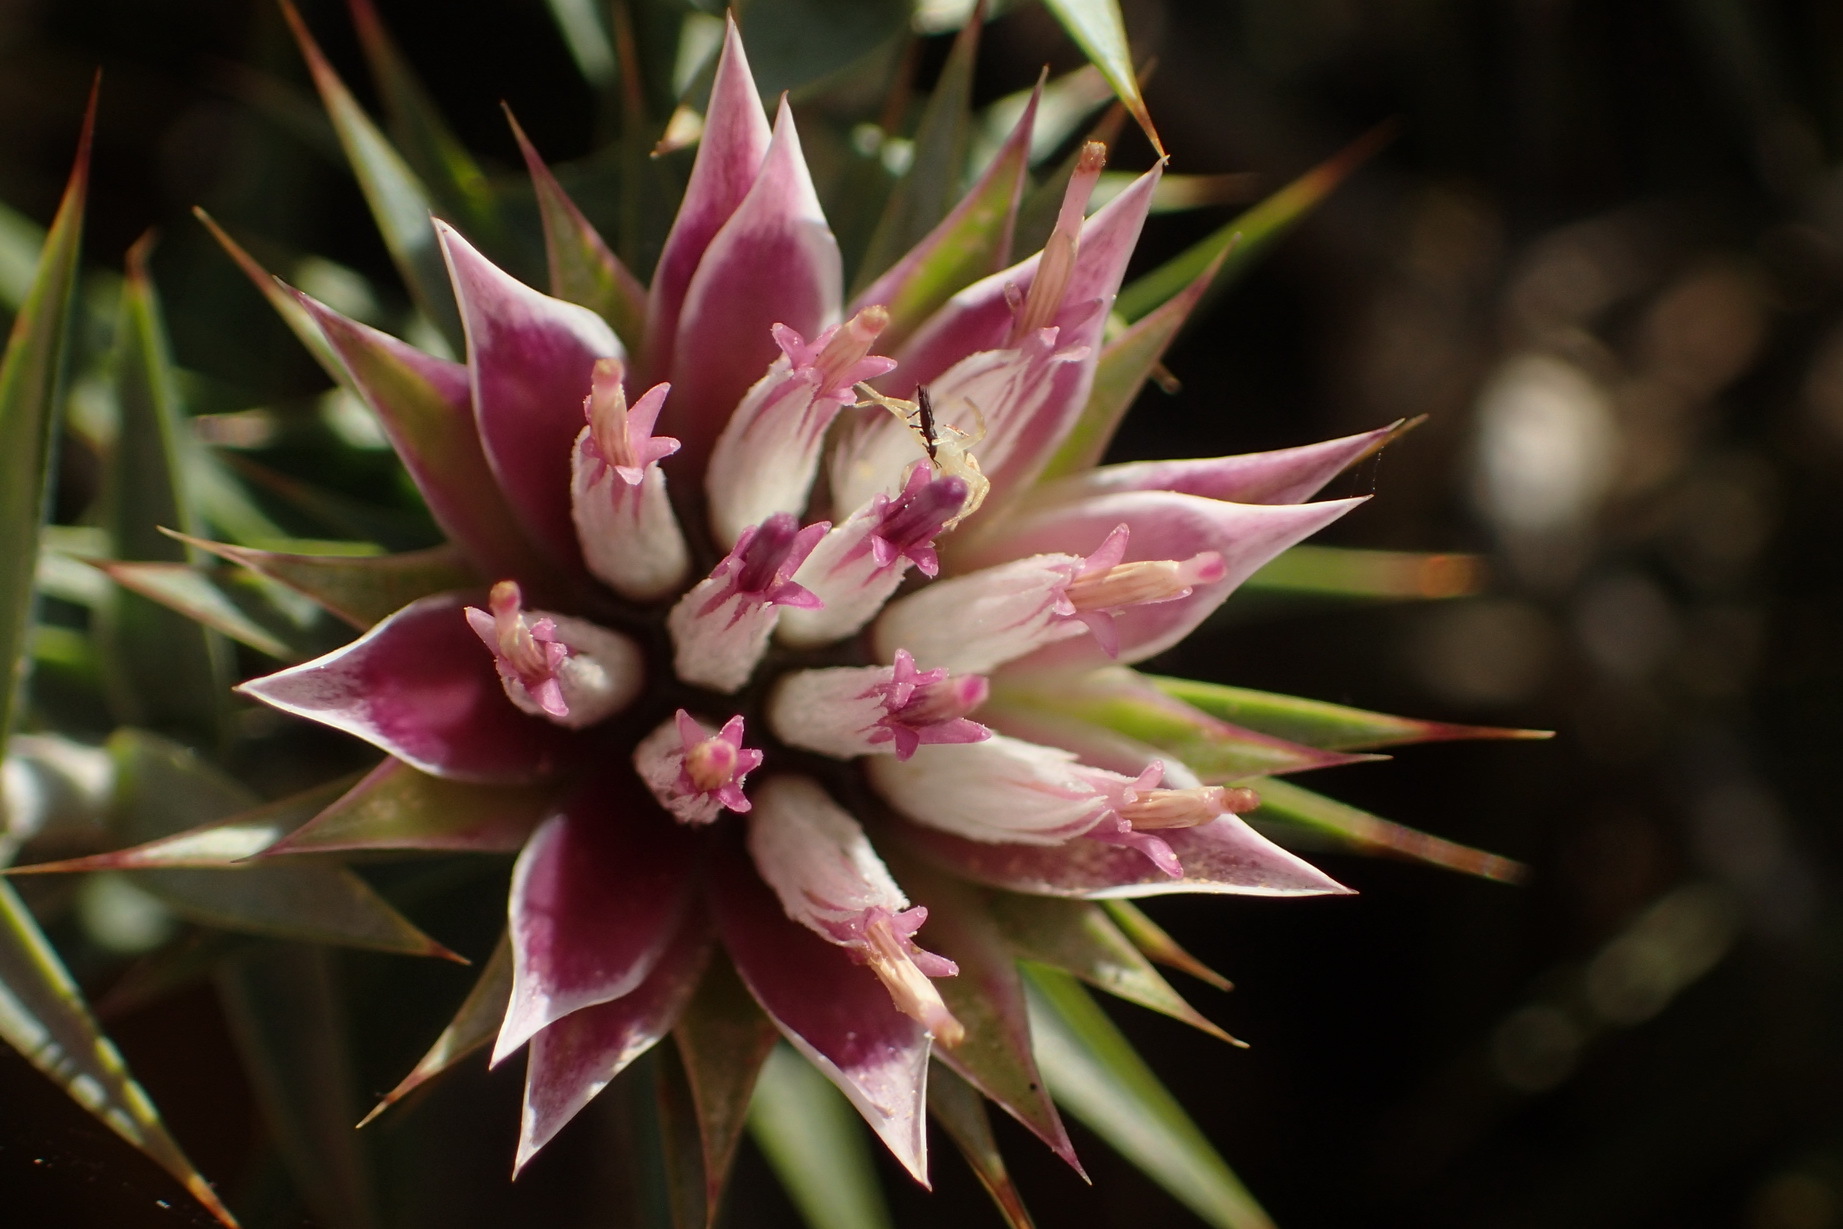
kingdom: Plantae
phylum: Tracheophyta
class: Magnoliopsida
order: Asterales
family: Asteraceae
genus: Macledium
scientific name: Macledium relhanioides
